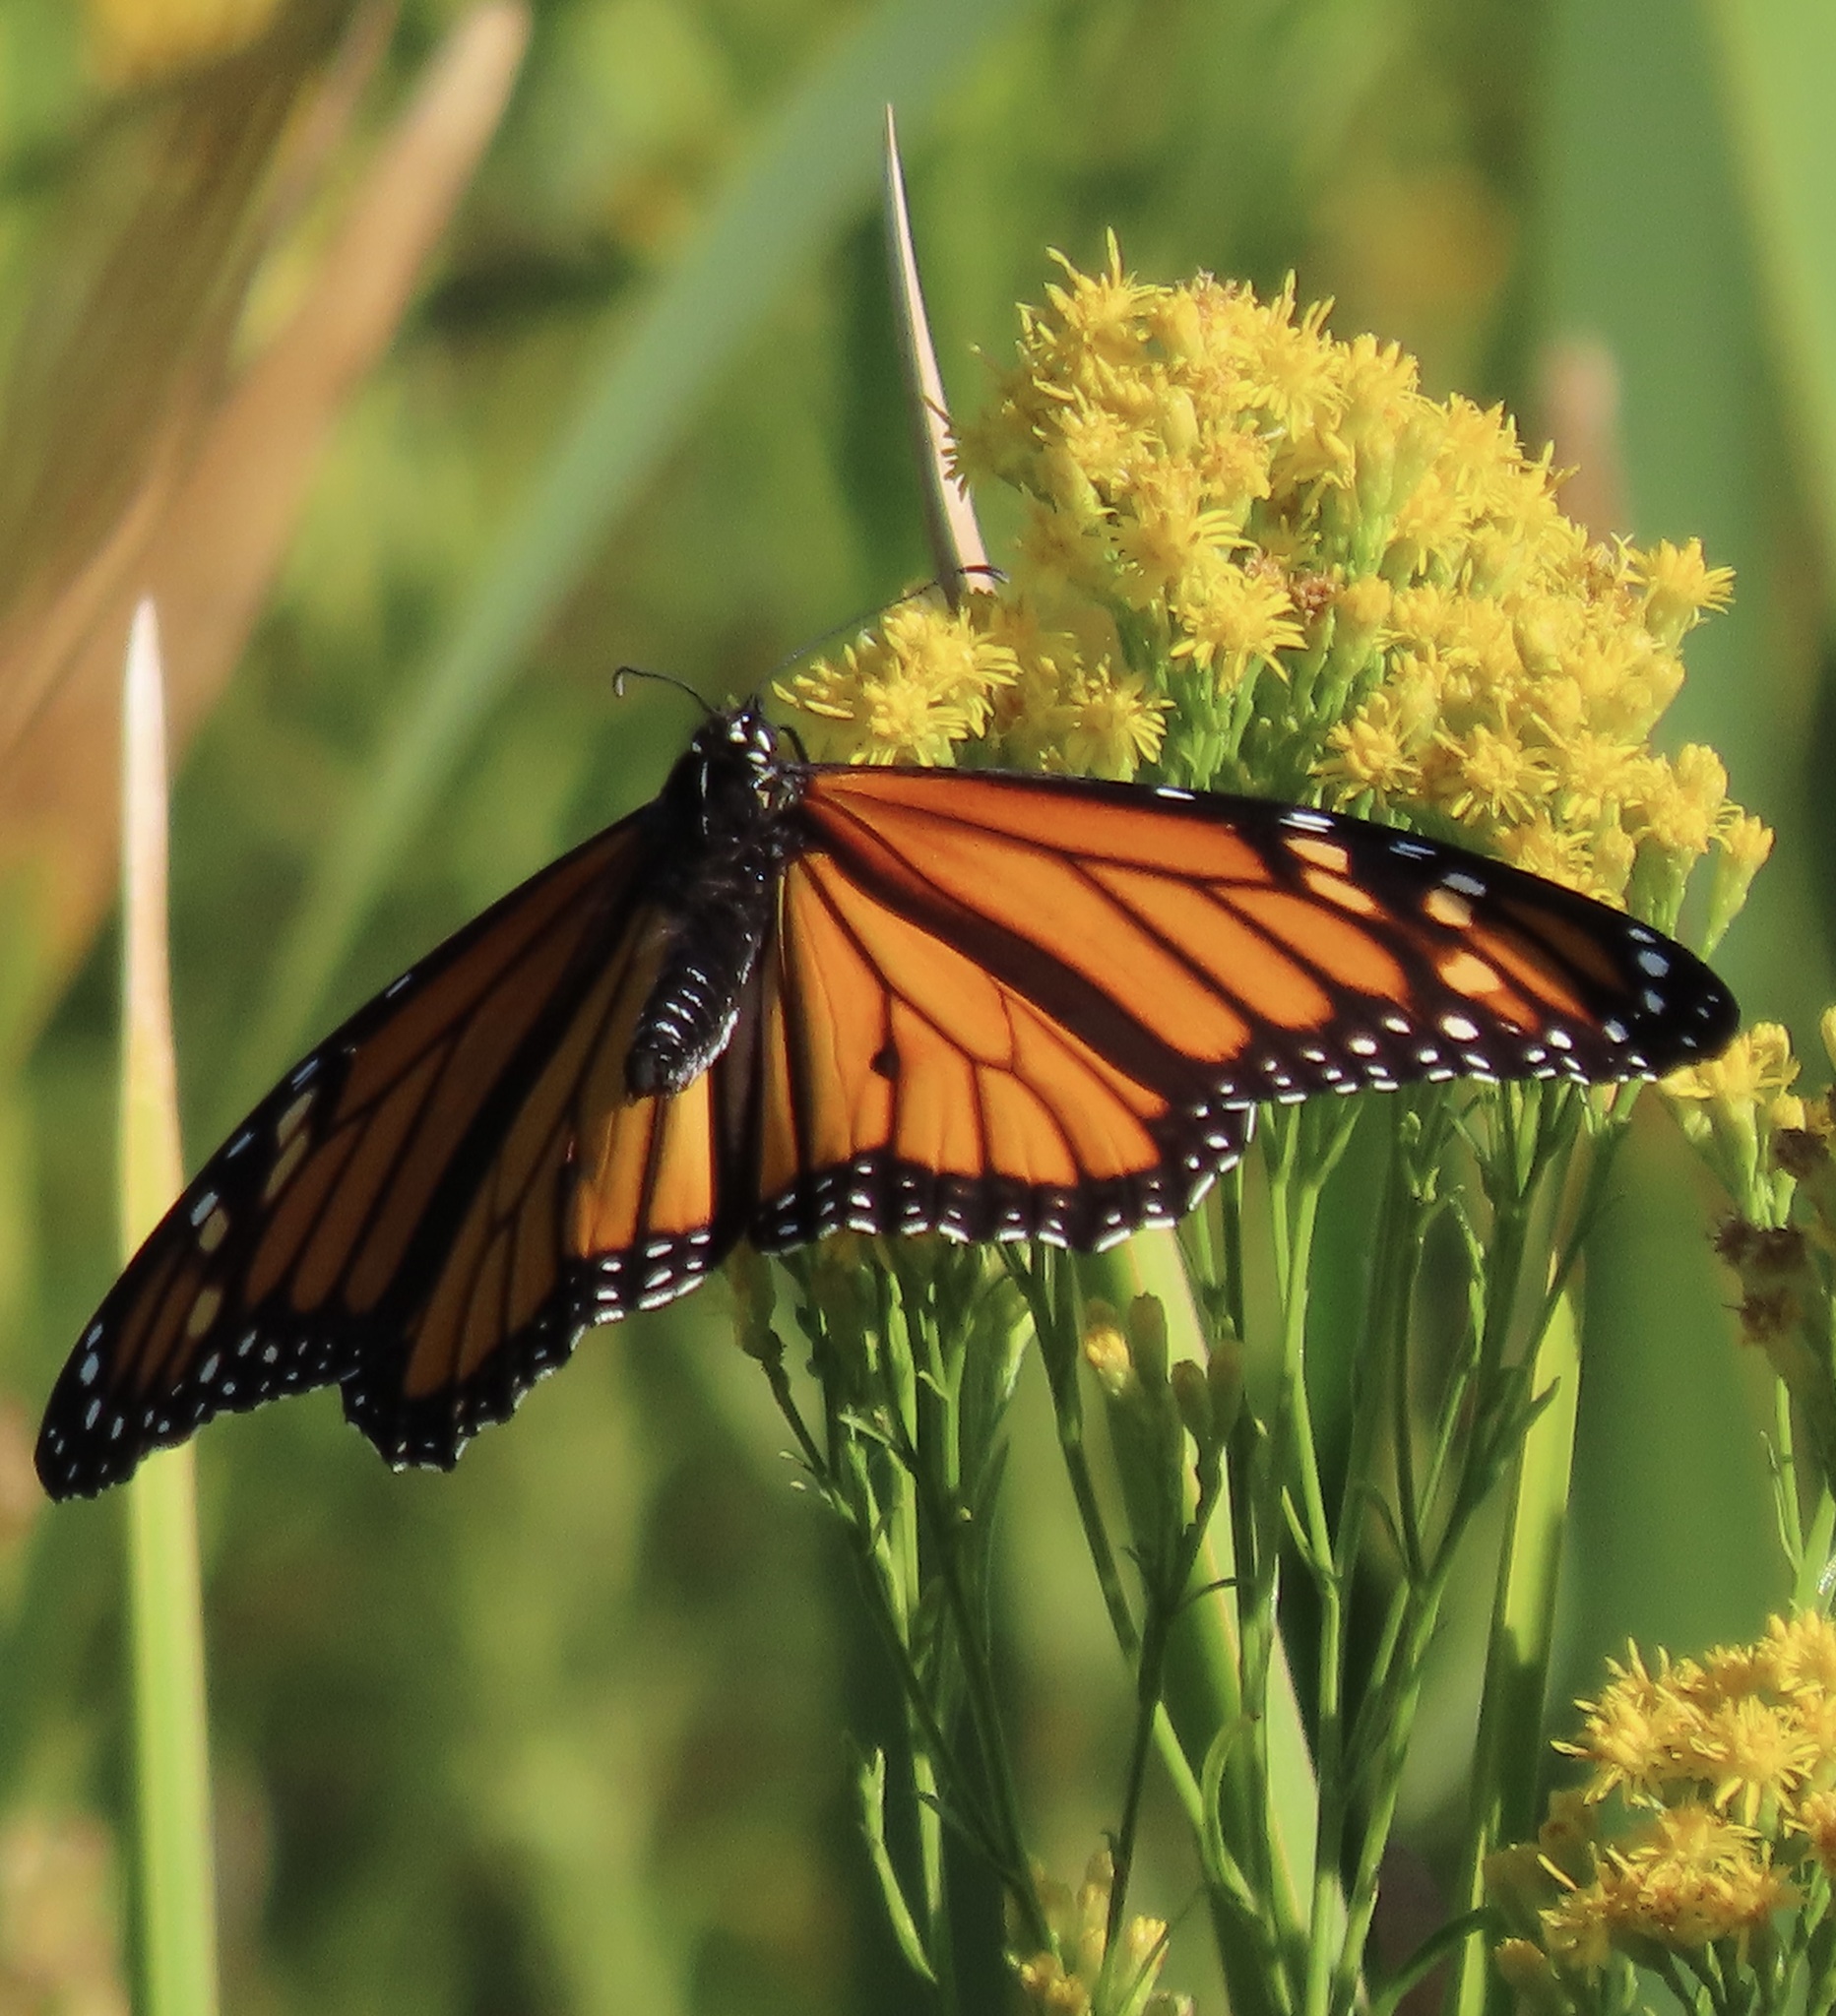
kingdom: Animalia
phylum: Arthropoda
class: Insecta
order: Lepidoptera
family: Nymphalidae
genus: Danaus
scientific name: Danaus plexippus
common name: Monarch
